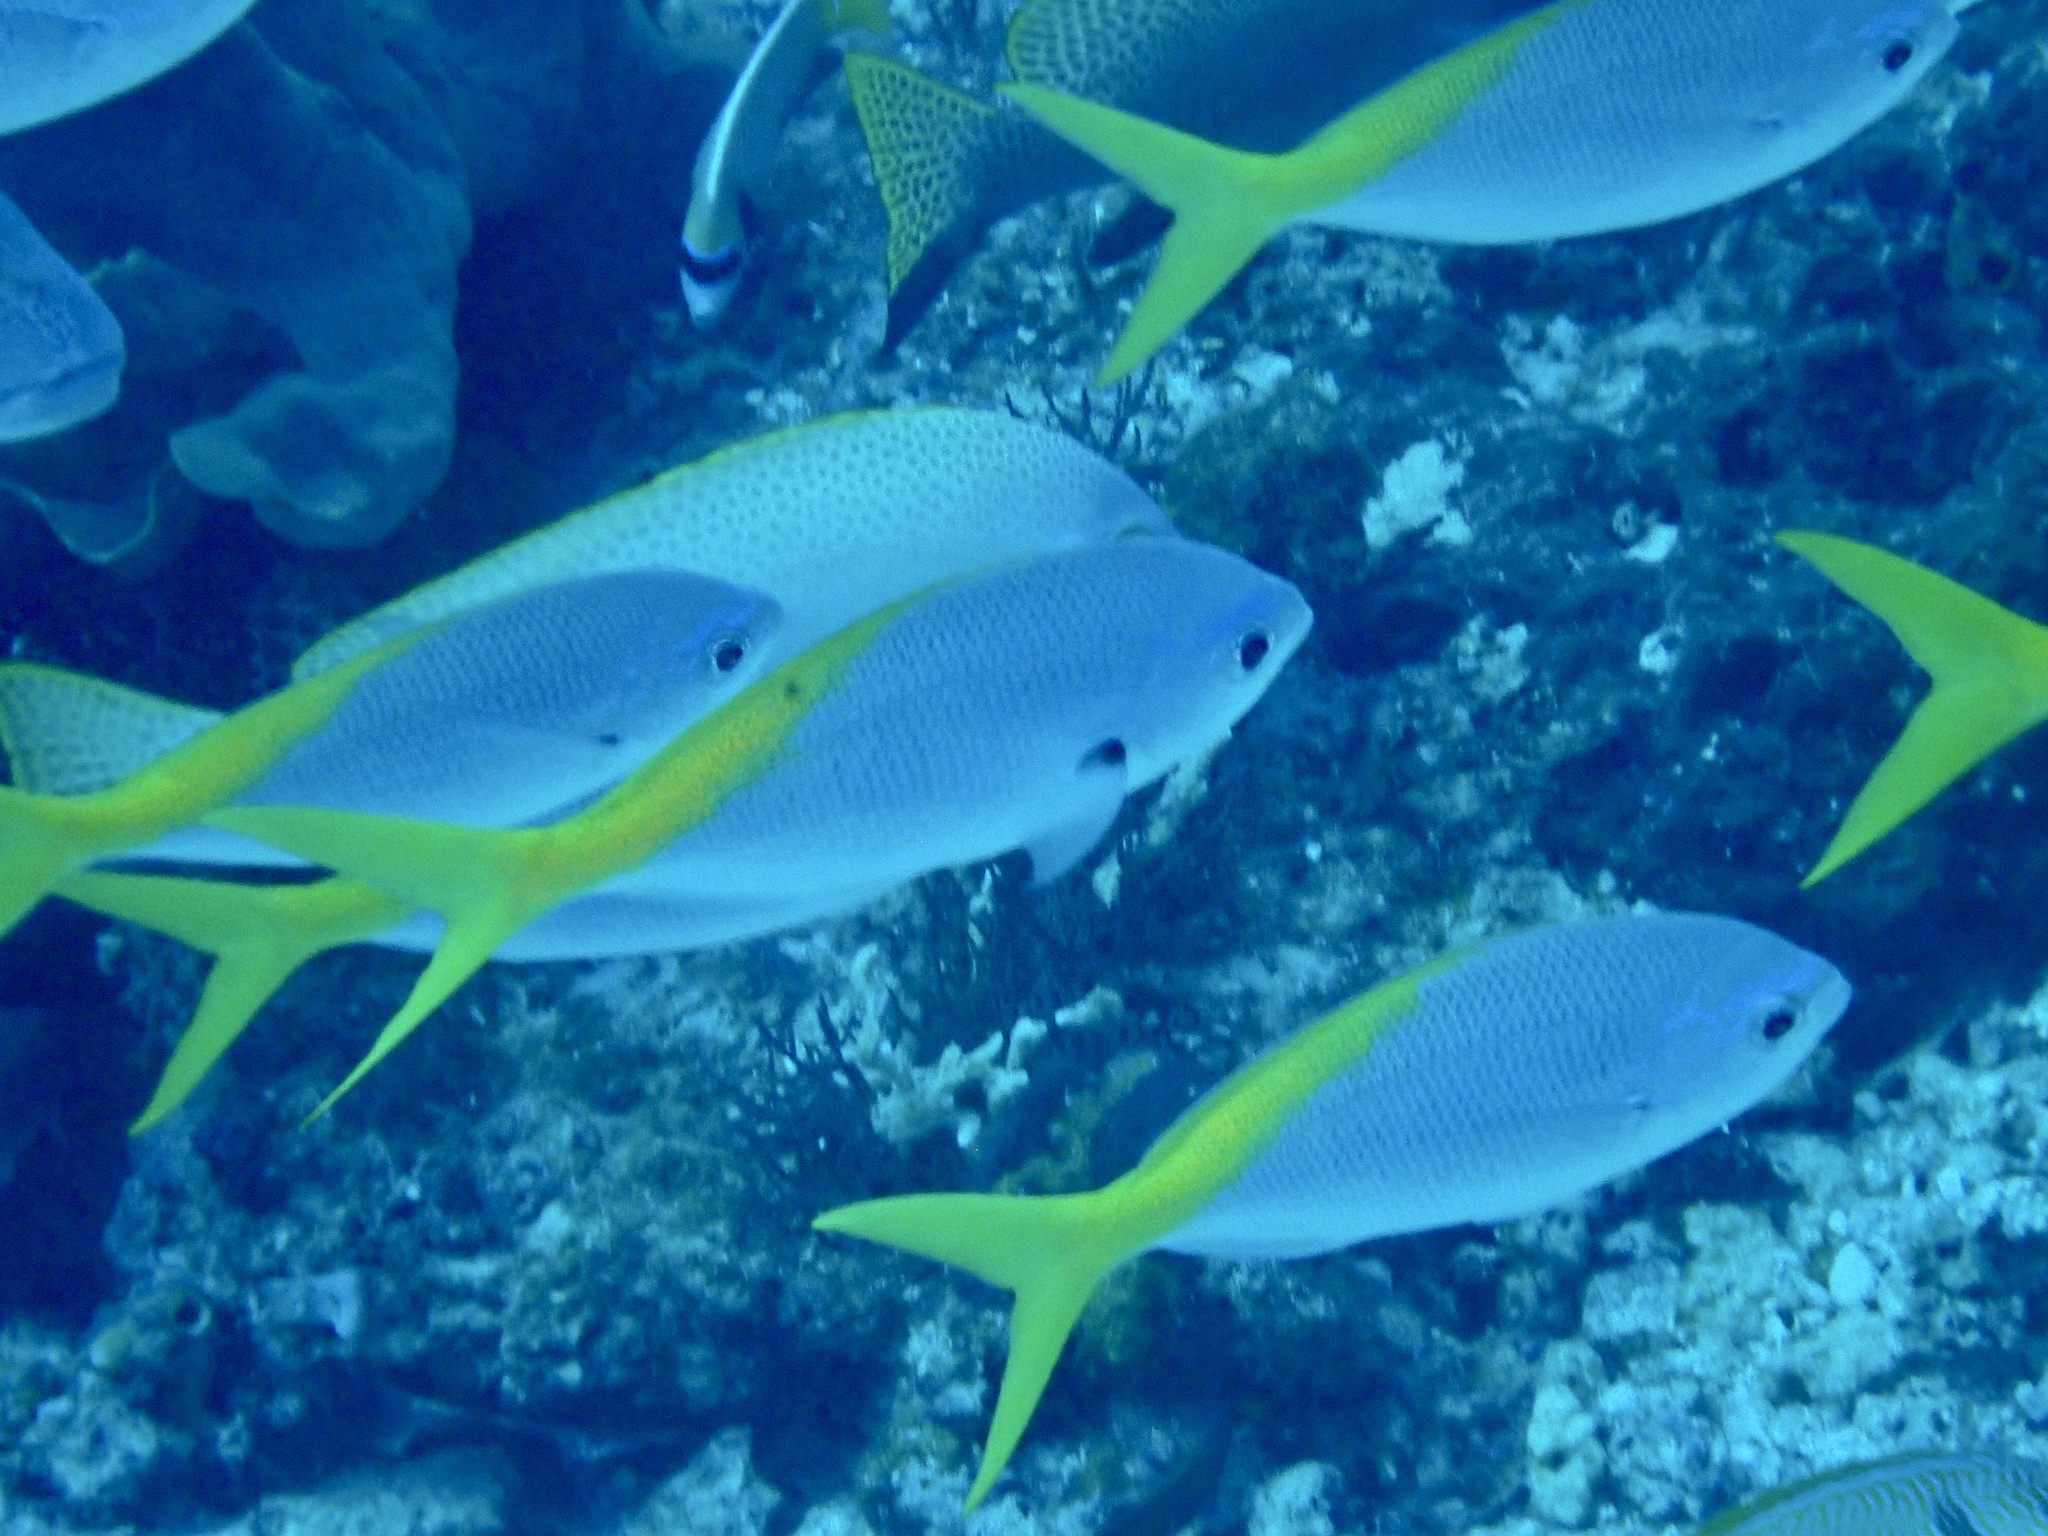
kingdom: Animalia
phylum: Chordata
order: Perciformes
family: Caesionidae
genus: Caesio
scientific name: Caesio cuning
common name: Red-bellied fusilier
